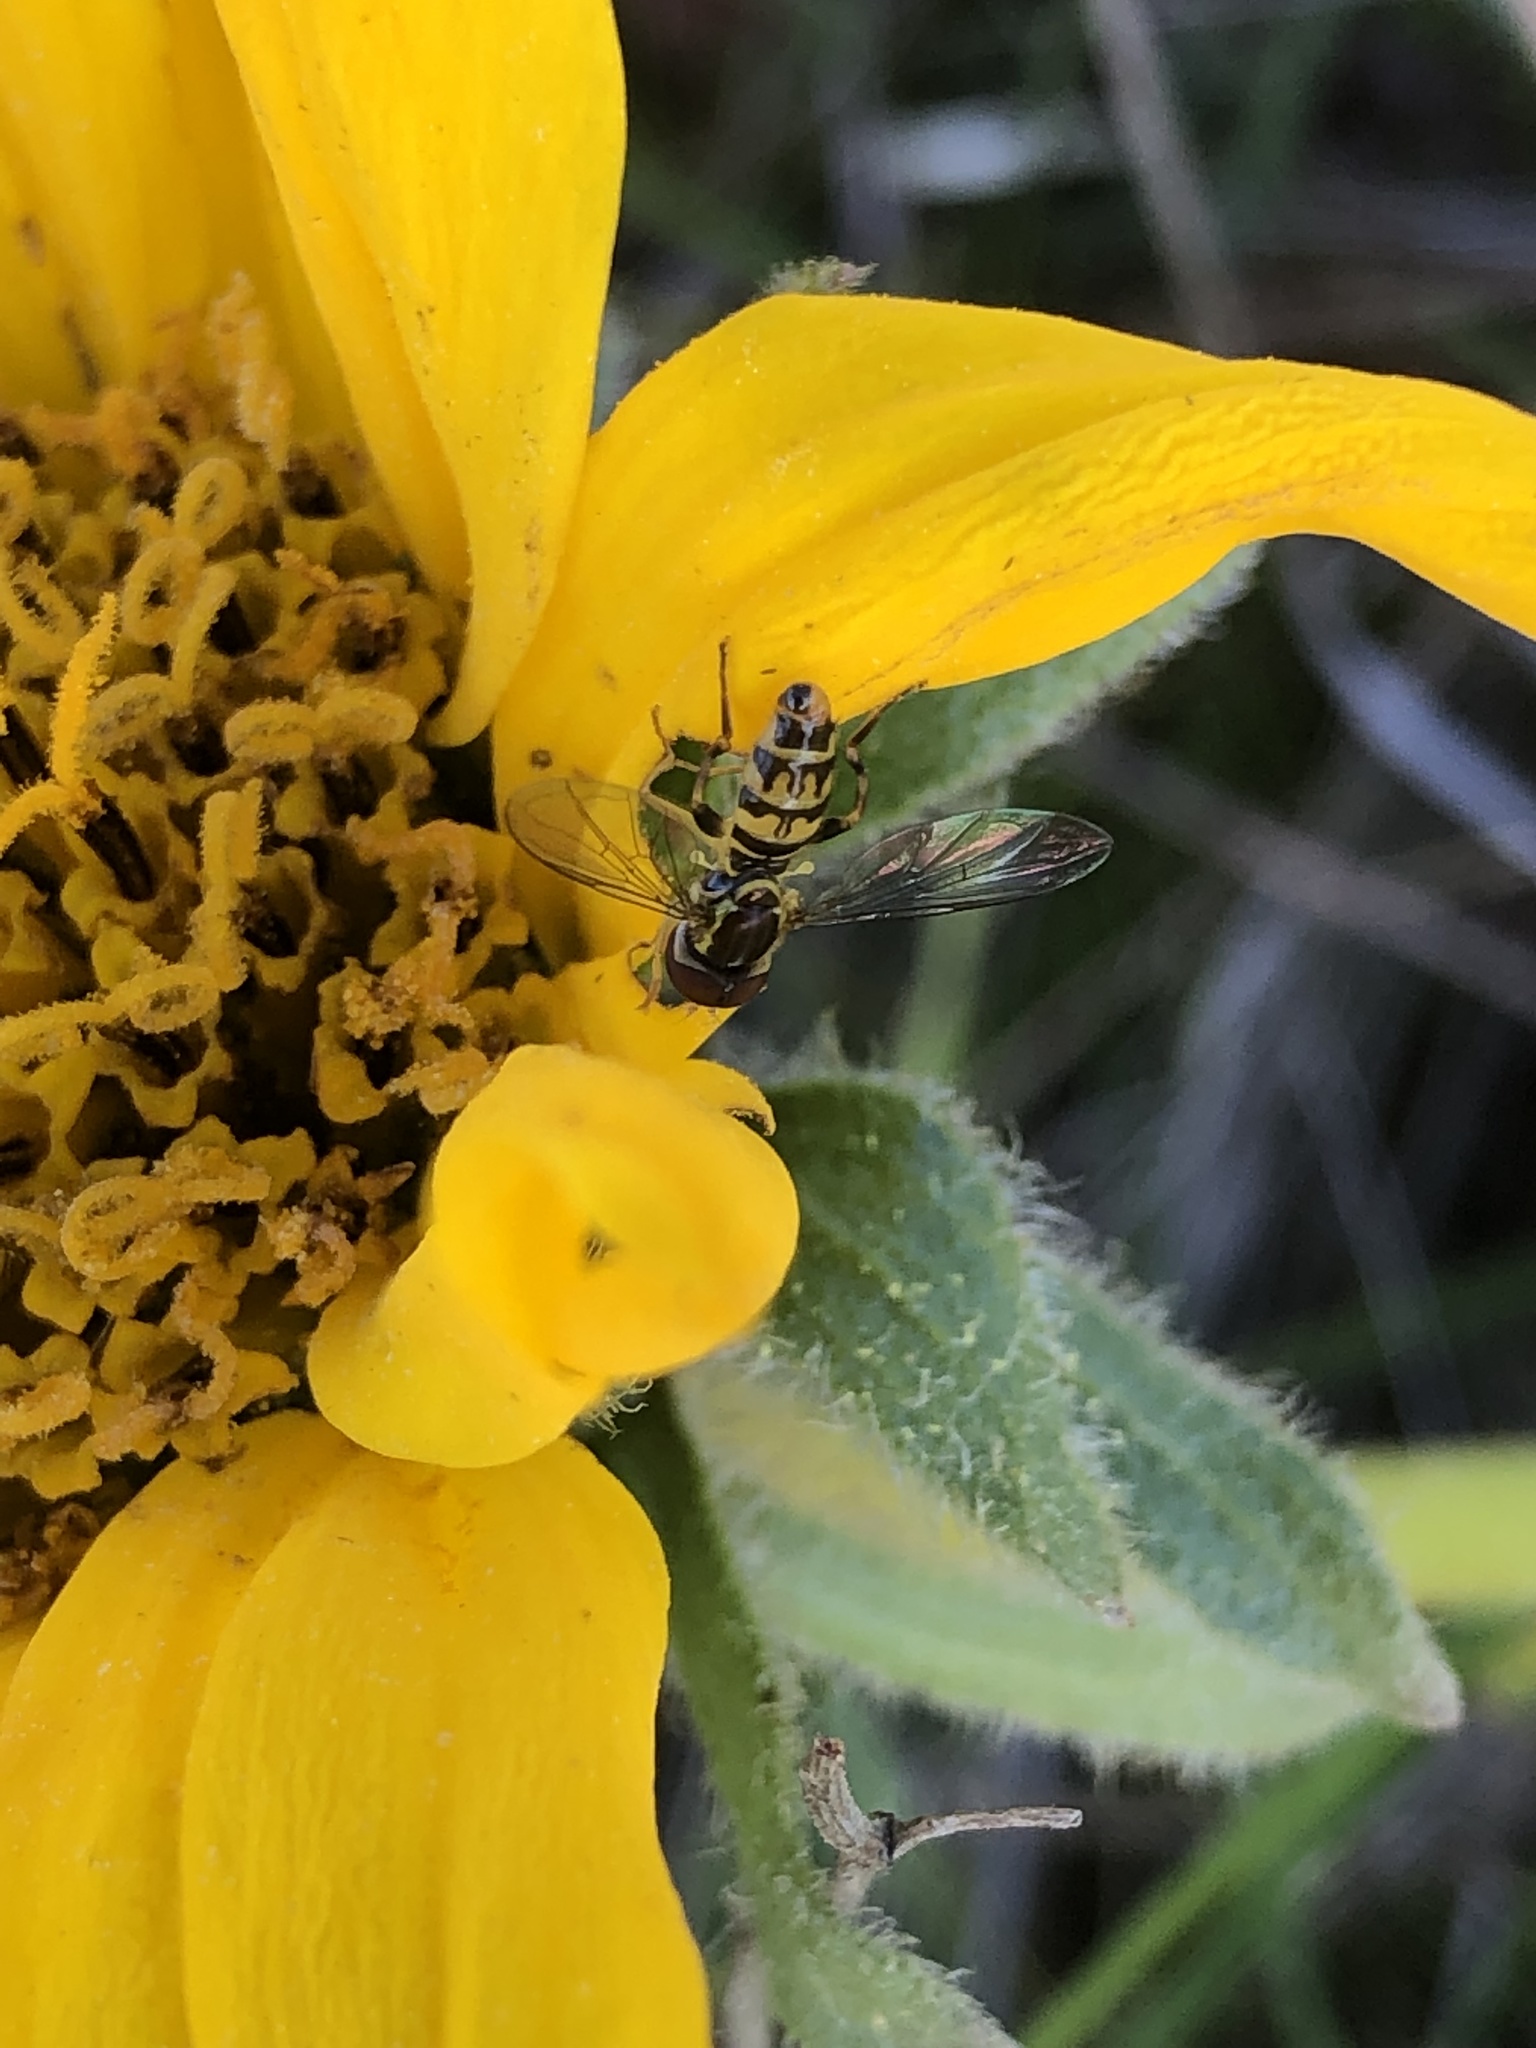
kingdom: Animalia
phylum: Arthropoda
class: Insecta
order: Diptera
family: Syrphidae
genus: Toxomerus
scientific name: Toxomerus occidentalis
